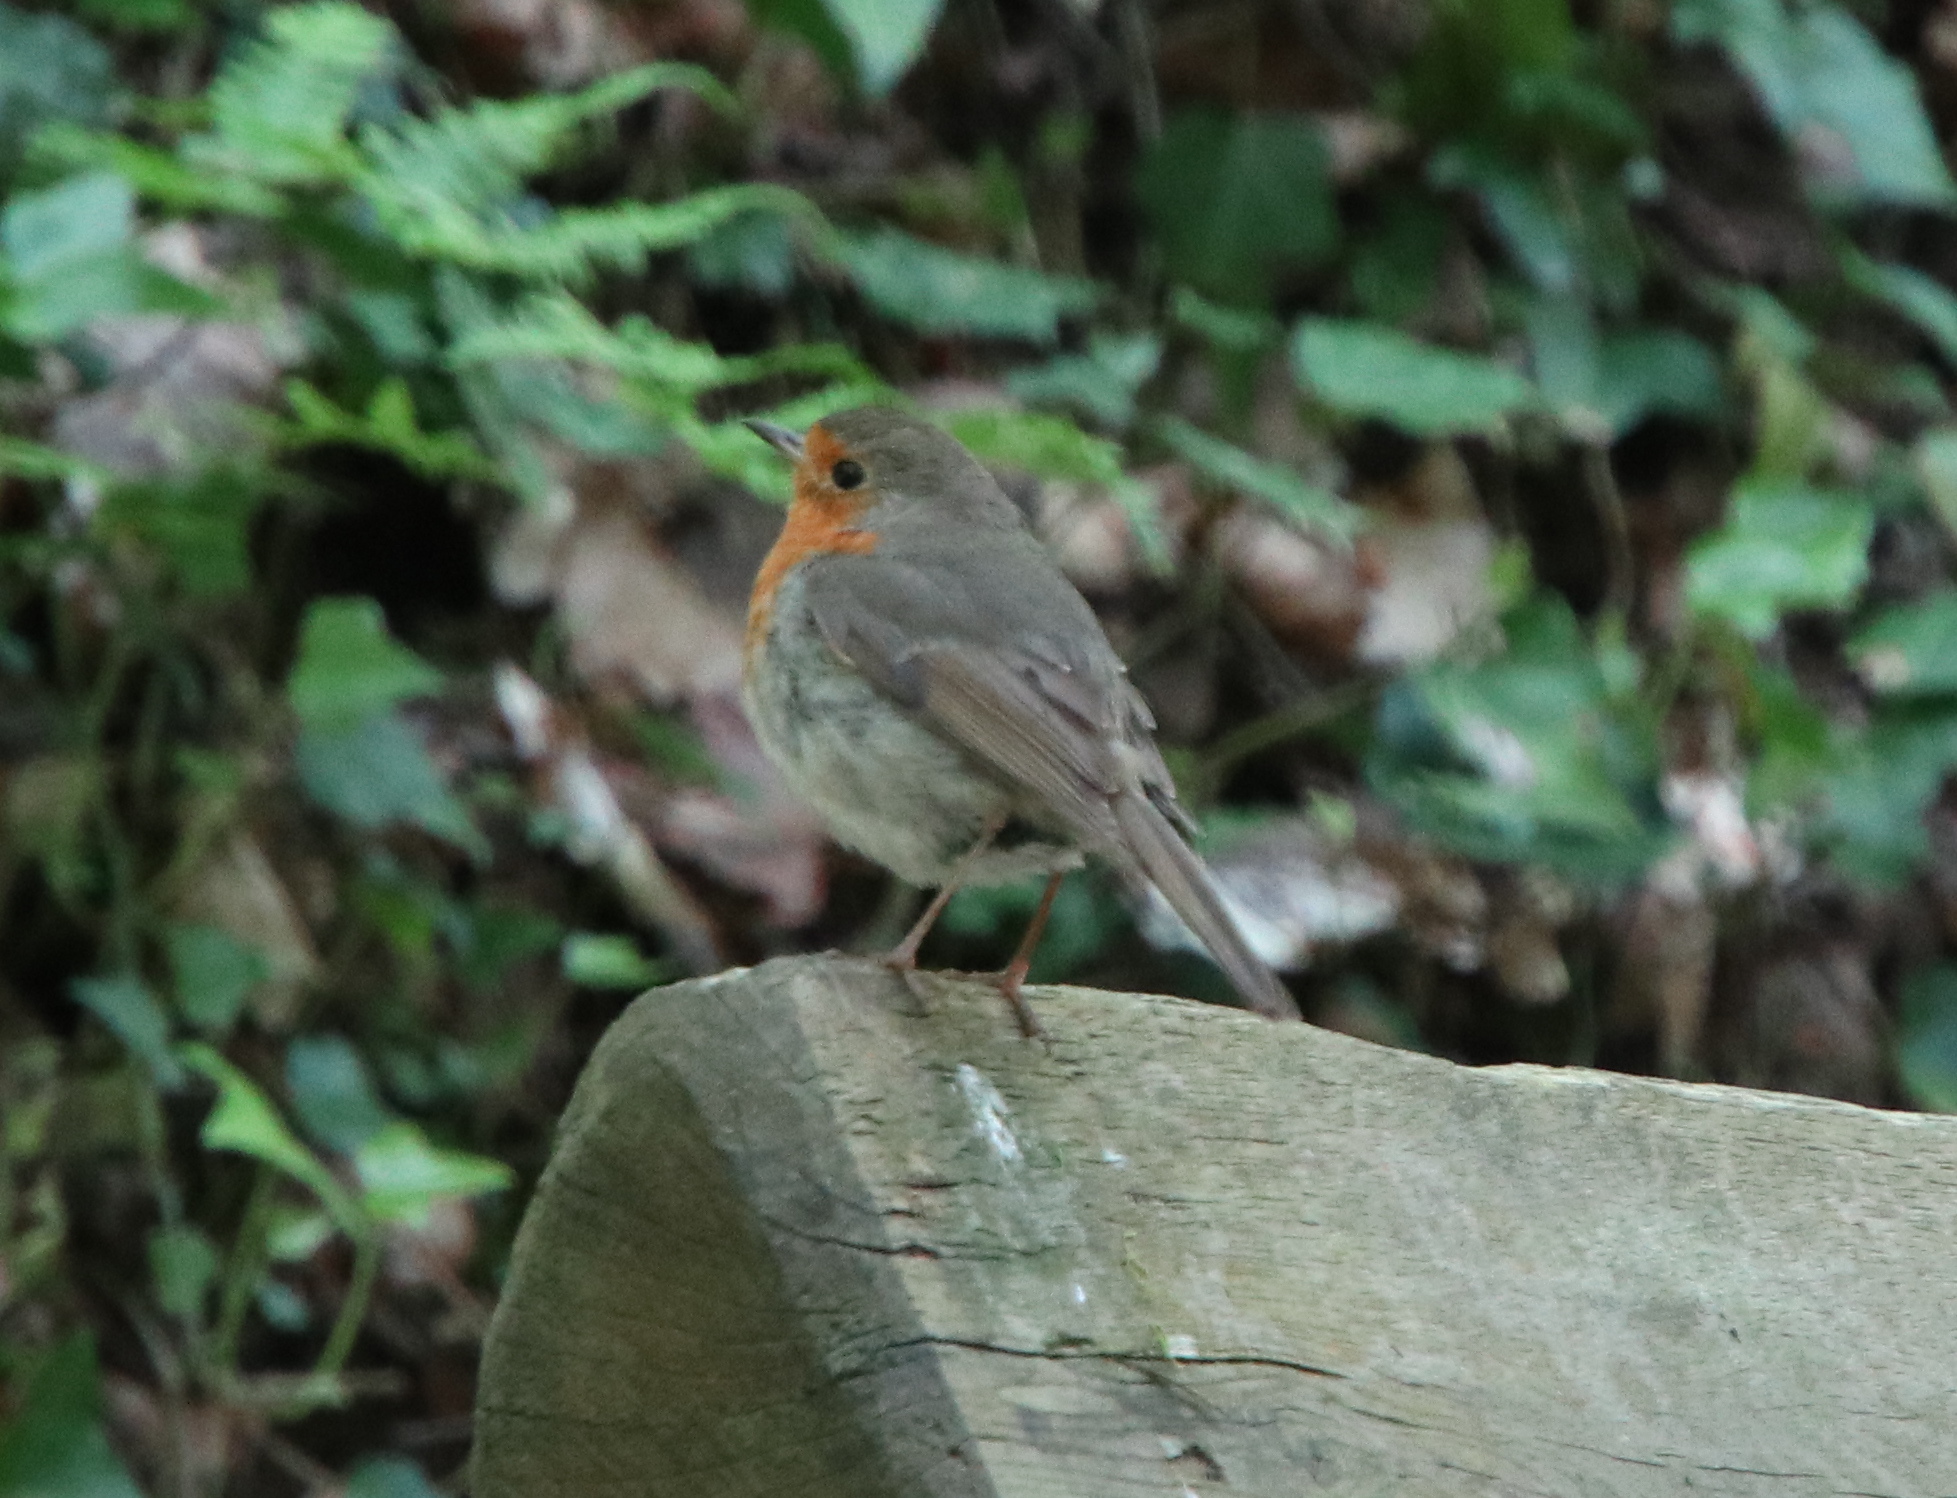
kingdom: Animalia
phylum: Chordata
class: Aves
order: Passeriformes
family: Muscicapidae
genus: Erithacus
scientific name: Erithacus rubecula
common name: European robin
